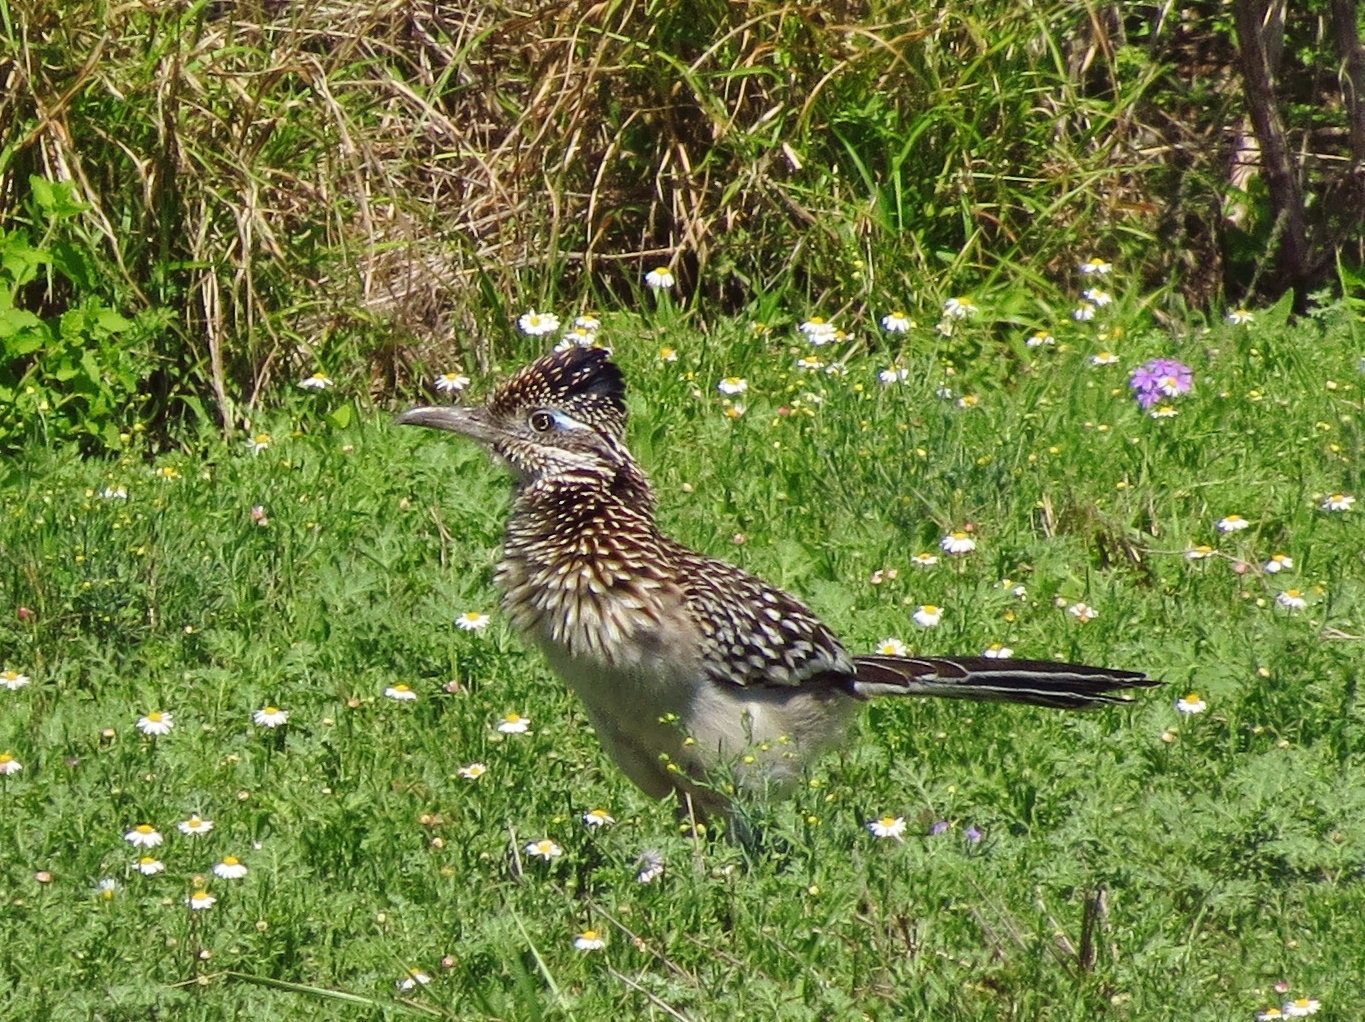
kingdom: Animalia
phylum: Chordata
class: Aves
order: Cuculiformes
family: Cuculidae
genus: Geococcyx
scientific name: Geococcyx californianus
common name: Greater roadrunner
